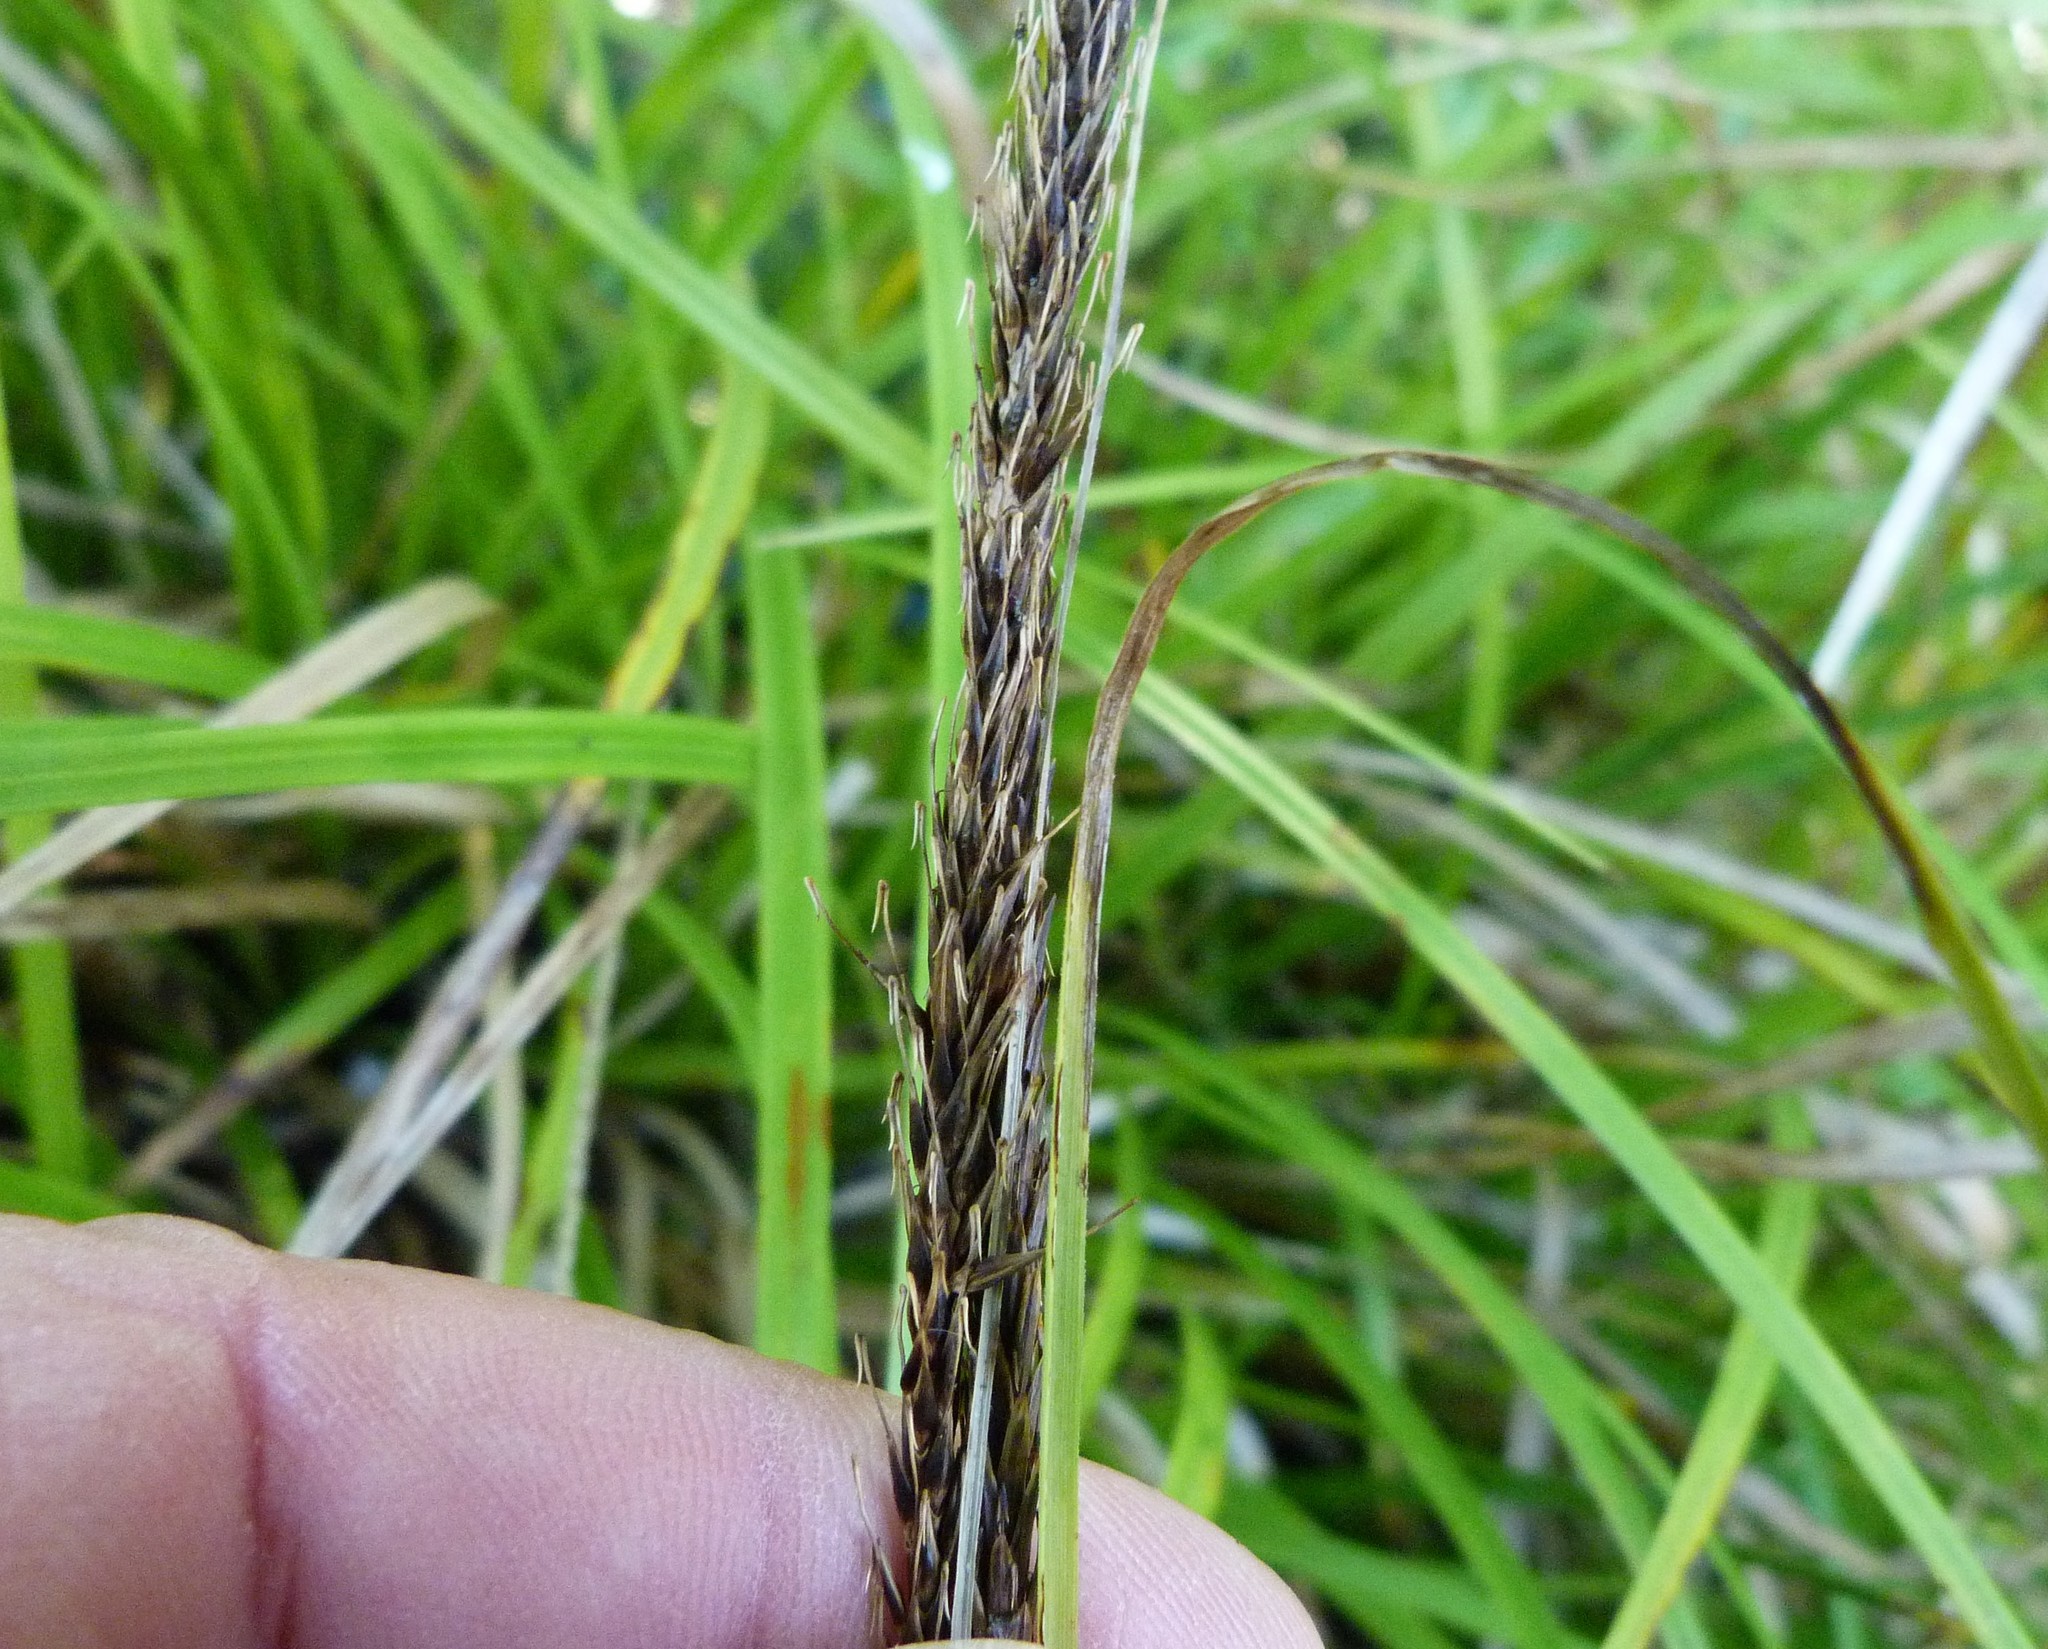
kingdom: Plantae
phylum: Tracheophyta
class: Liliopsida
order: Poales
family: Cyperaceae
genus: Carex
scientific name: Carex uncinata
